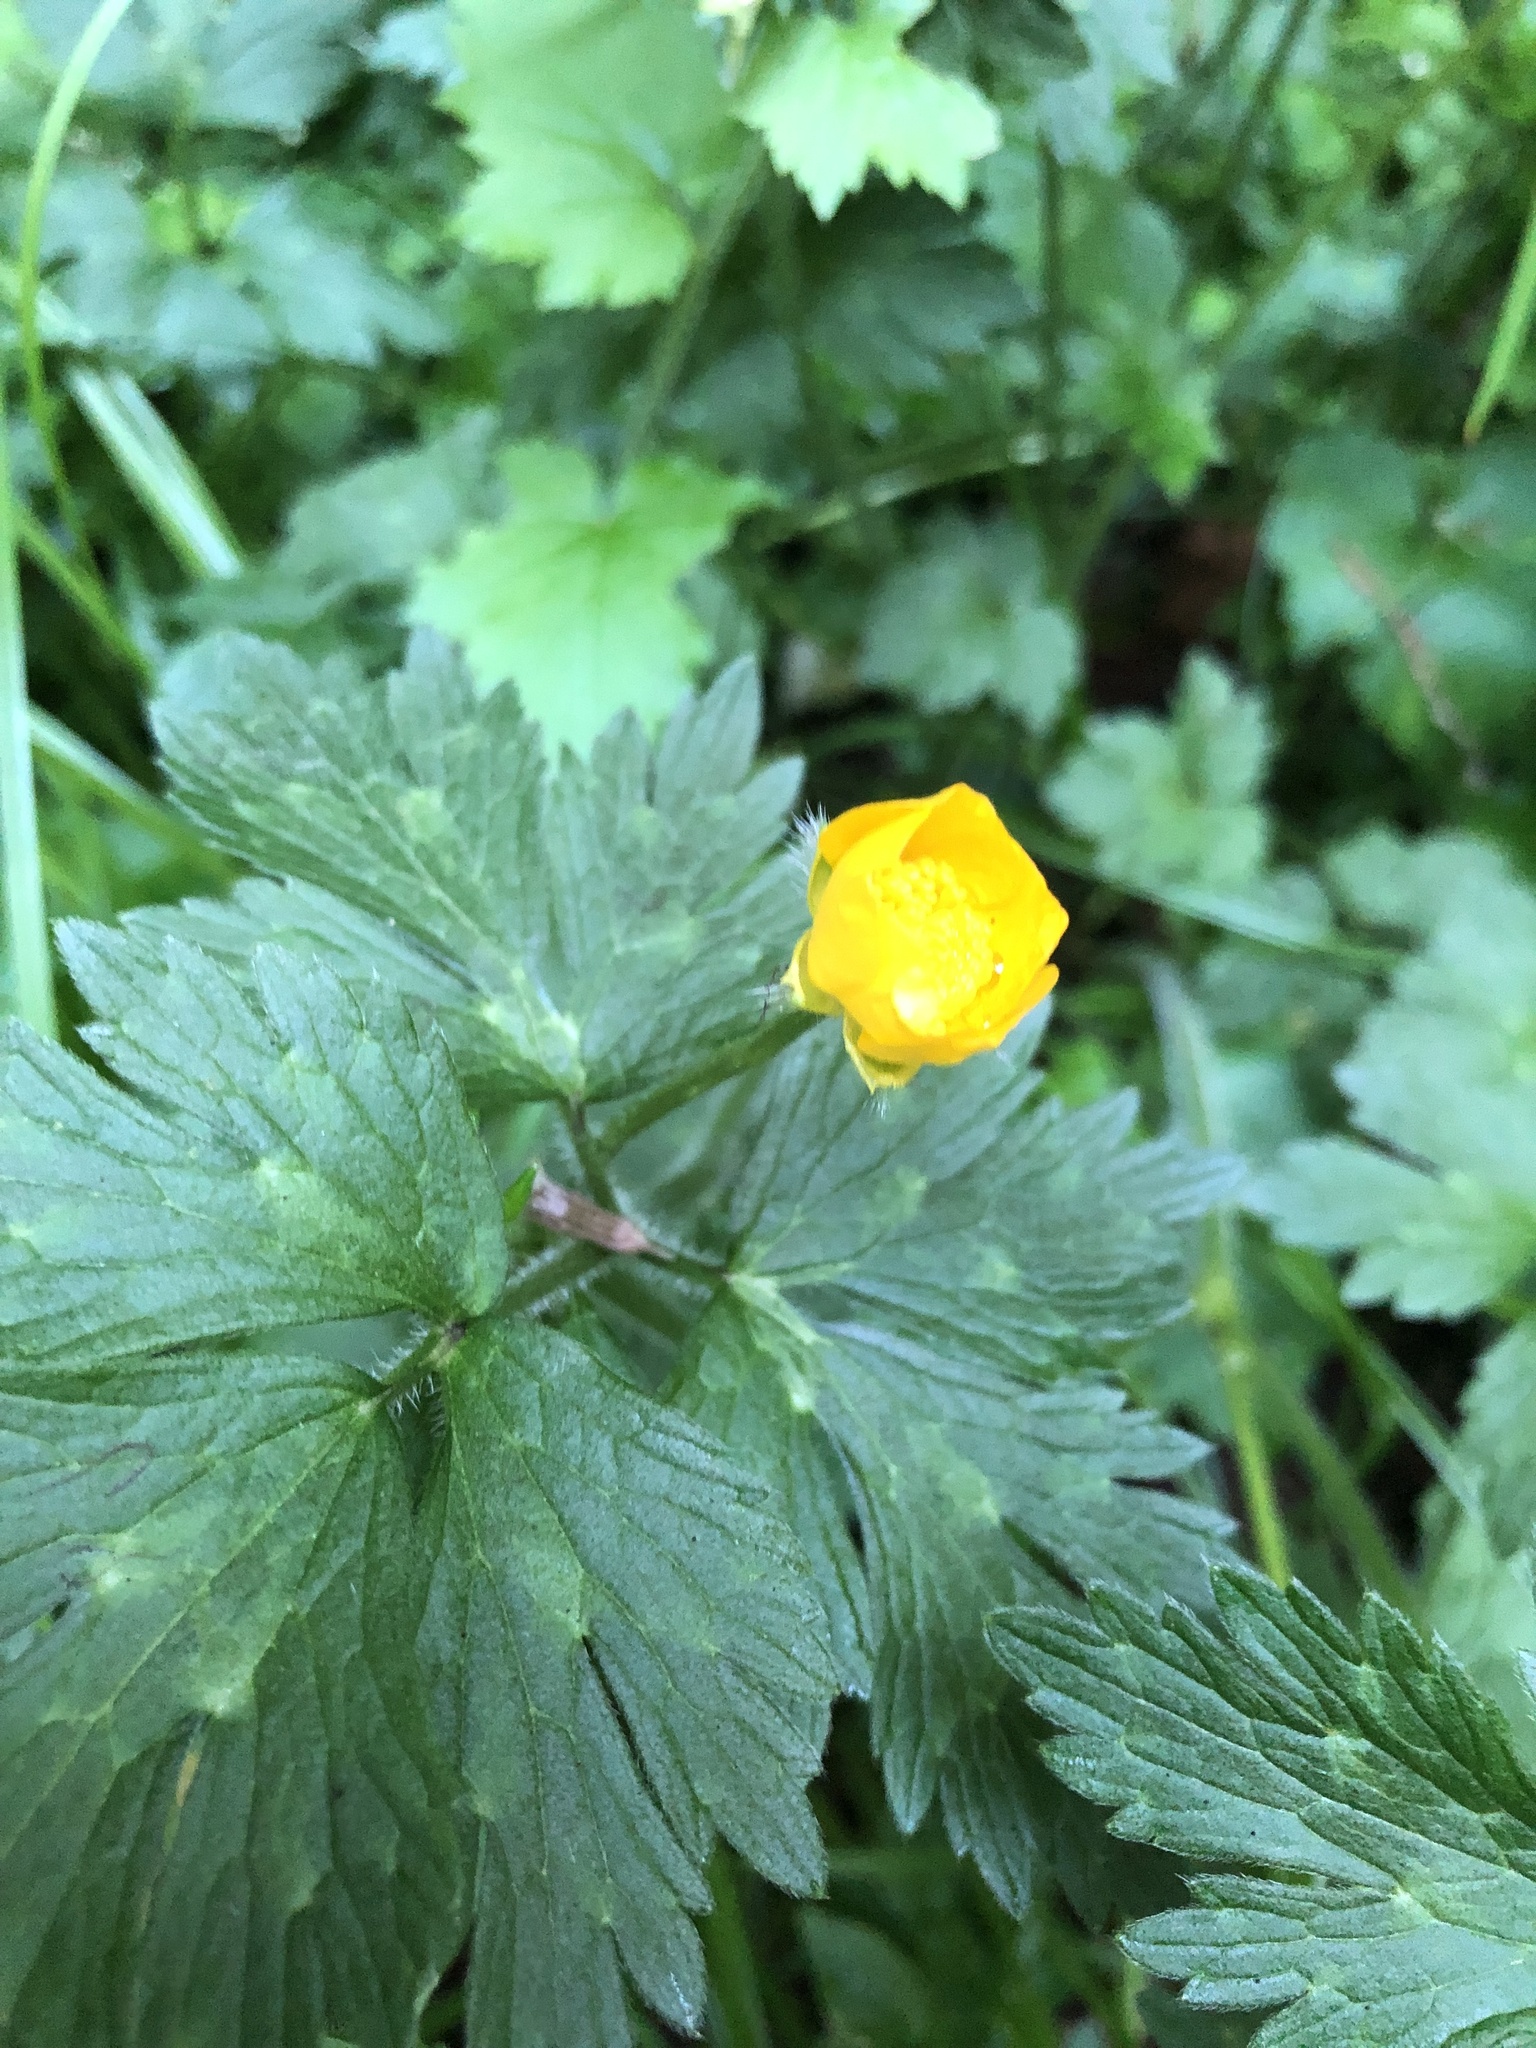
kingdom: Plantae
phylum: Tracheophyta
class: Magnoliopsida
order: Ranunculales
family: Ranunculaceae
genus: Ranunculus
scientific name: Ranunculus repens
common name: Creeping buttercup
